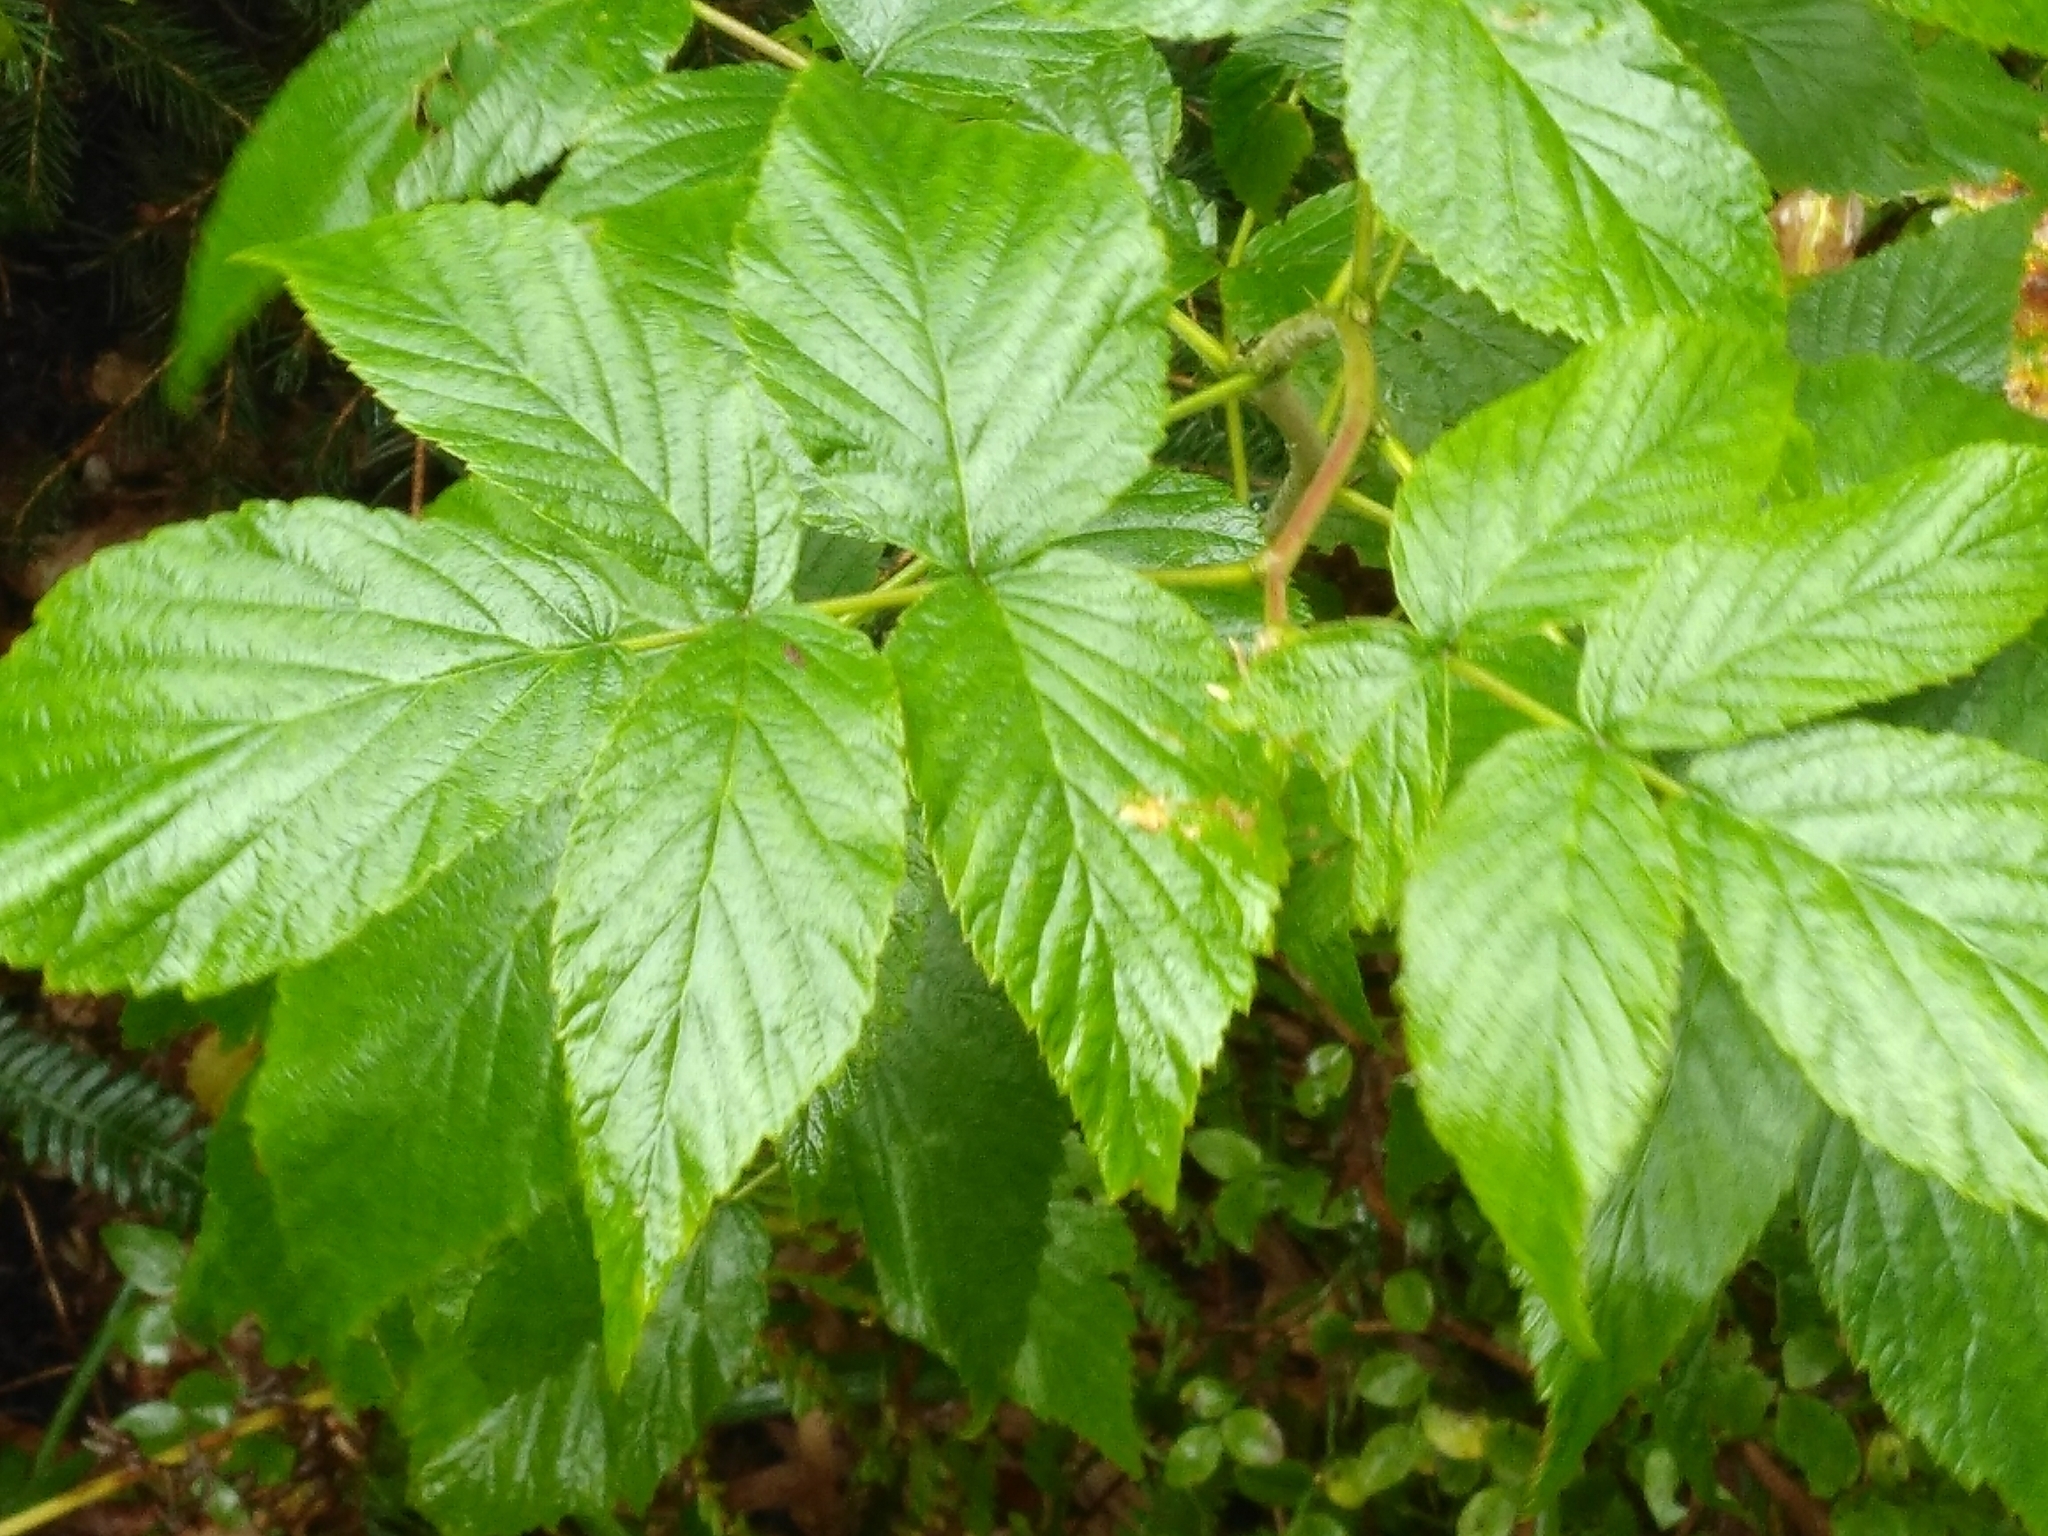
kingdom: Plantae
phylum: Tracheophyta
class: Magnoliopsida
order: Rosales
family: Rosaceae
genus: Rubus
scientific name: Rubus idaeus
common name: Raspberry
